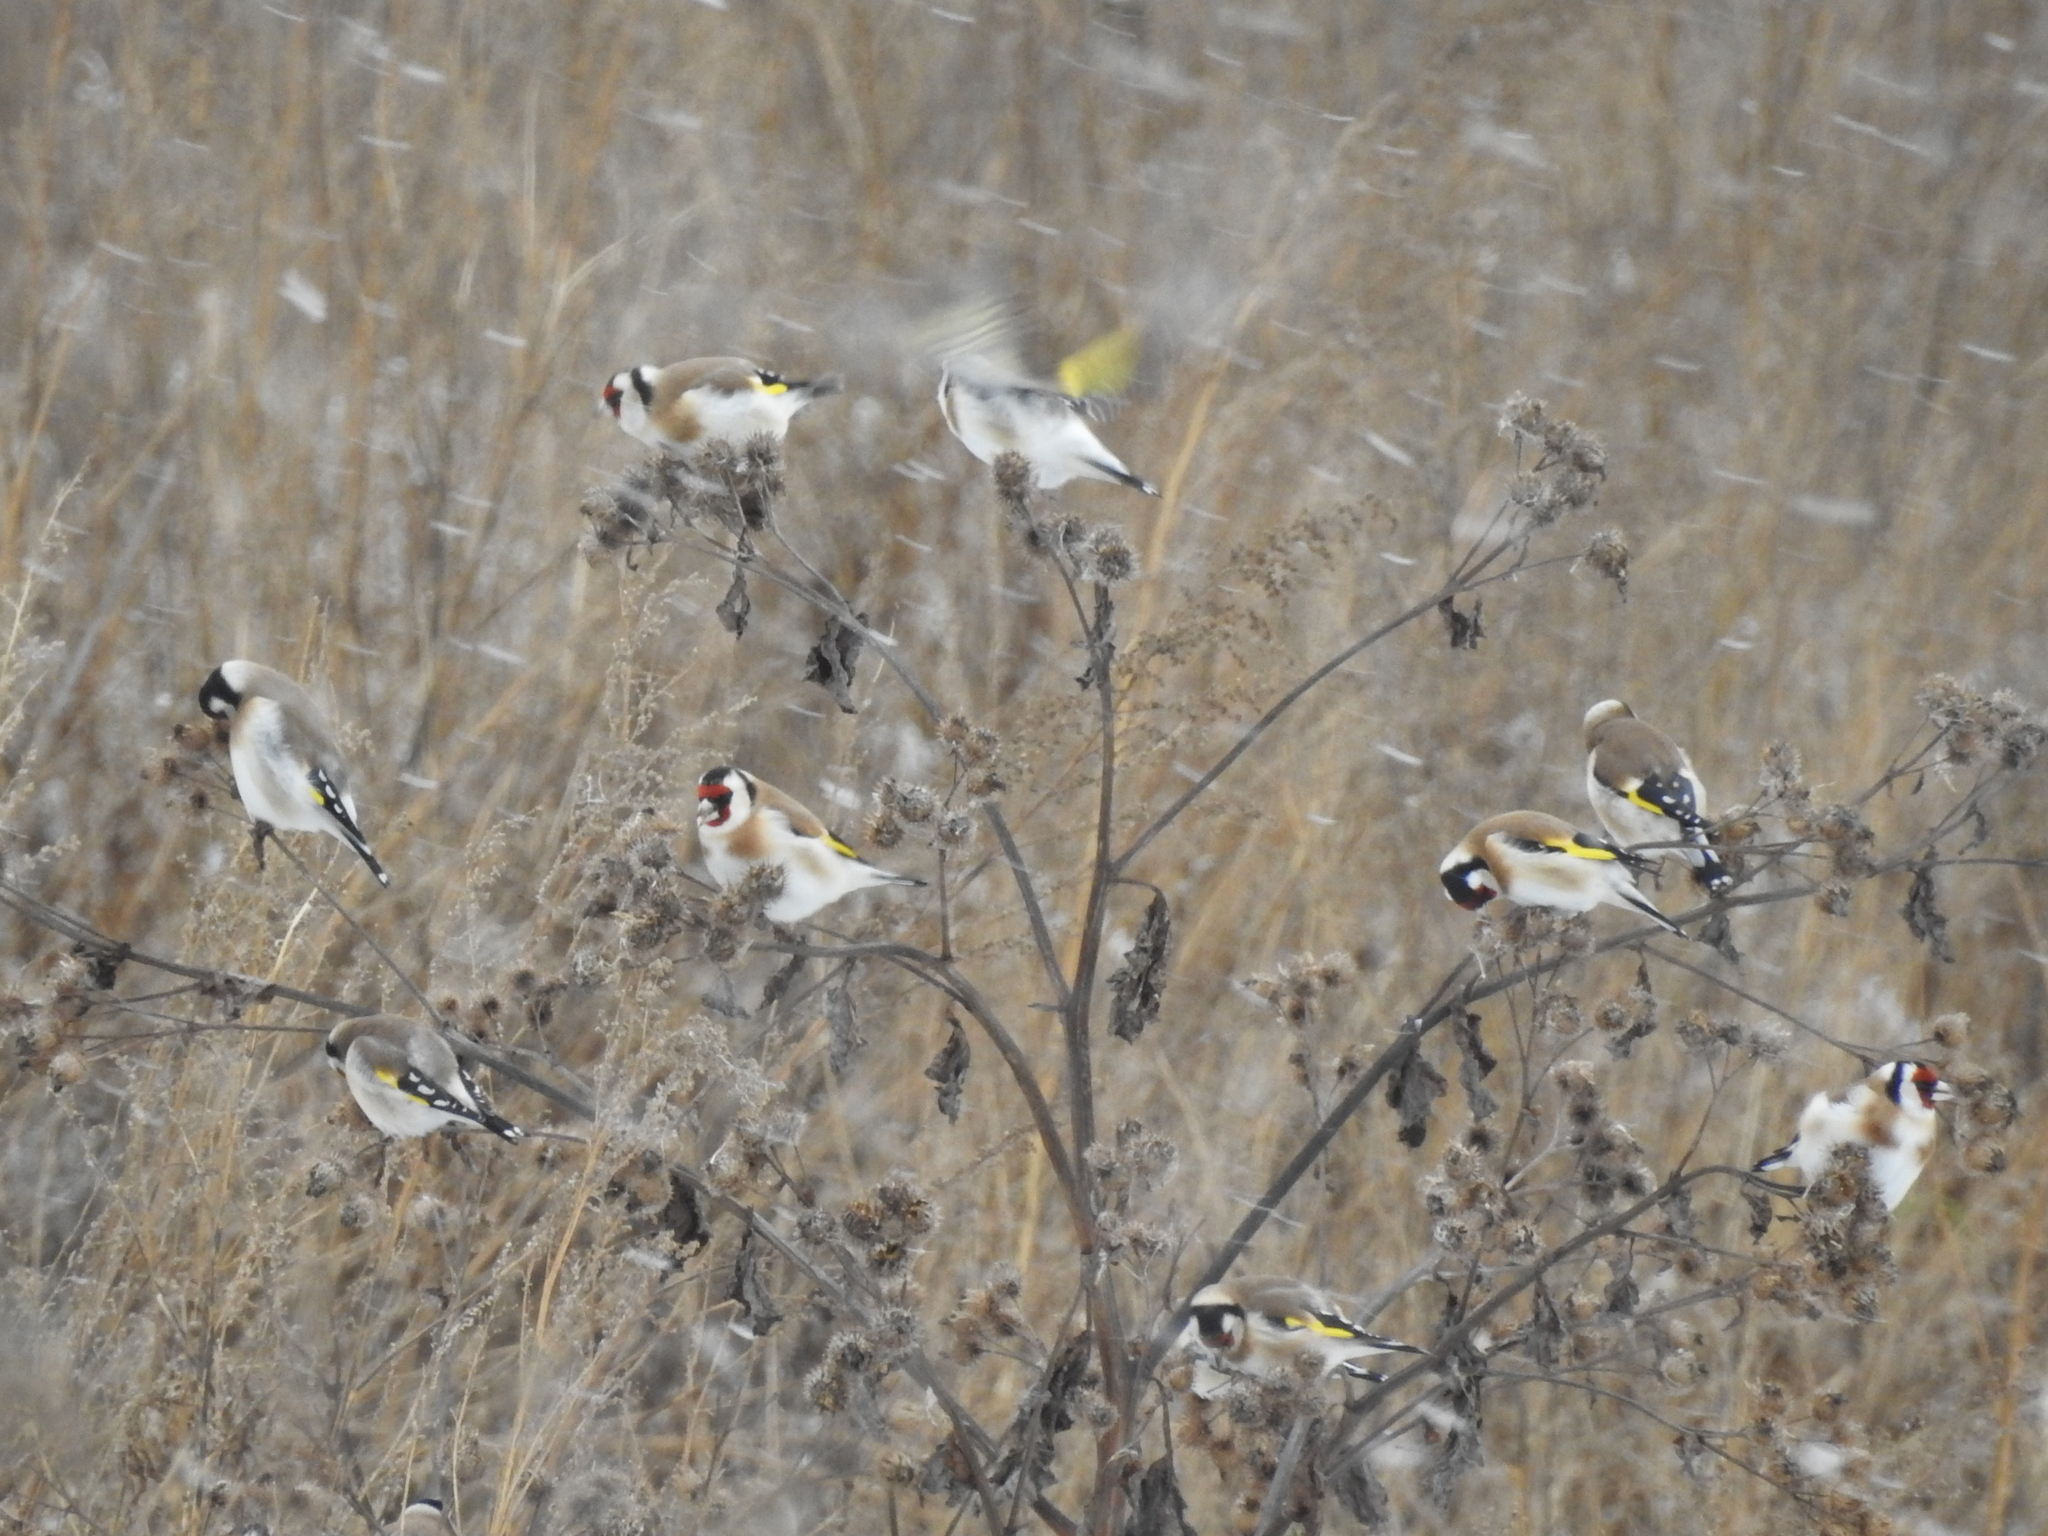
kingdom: Animalia
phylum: Chordata
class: Aves
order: Passeriformes
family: Fringillidae
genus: Carduelis
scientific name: Carduelis carduelis
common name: European goldfinch
